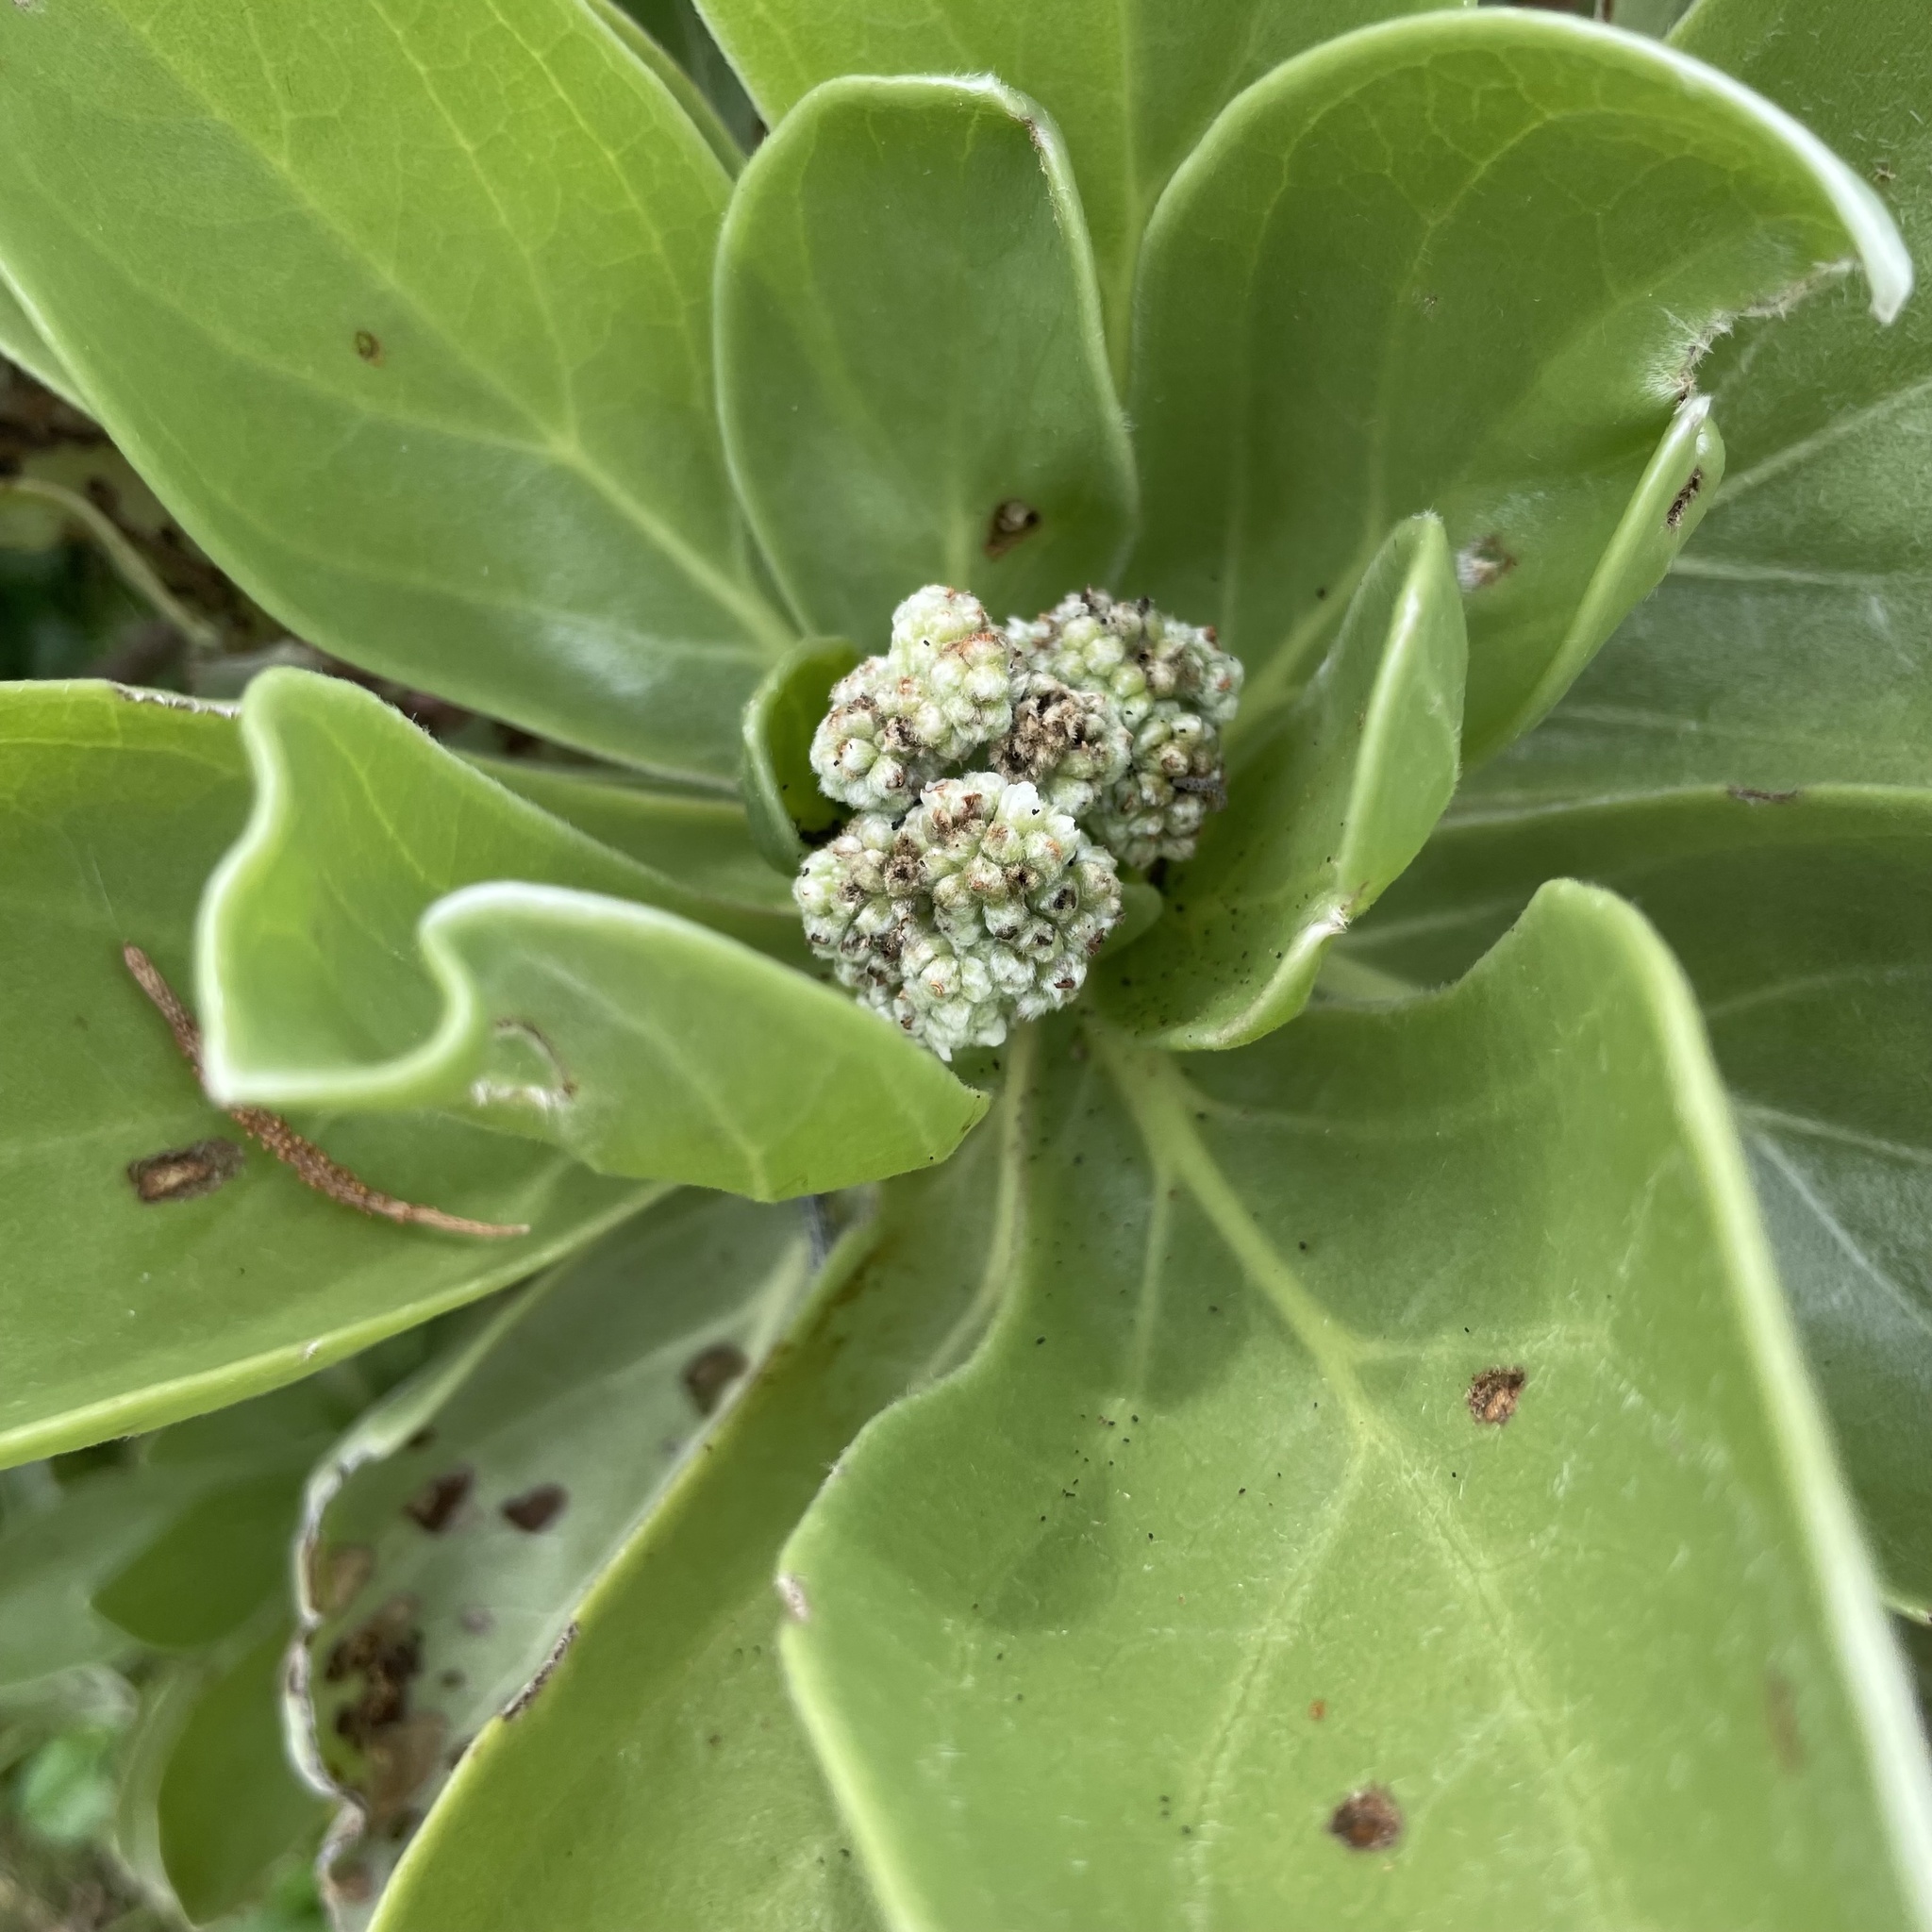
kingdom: Plantae
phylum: Tracheophyta
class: Magnoliopsida
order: Boraginales
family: Heliotropiaceae
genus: Heliotropium
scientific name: Heliotropium velutinum
